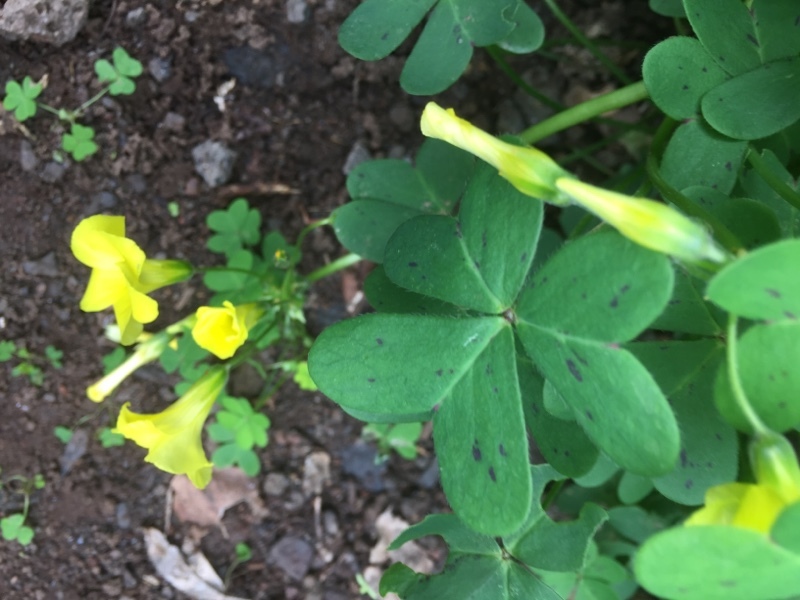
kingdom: Plantae
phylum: Tracheophyta
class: Magnoliopsida
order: Oxalidales
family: Oxalidaceae
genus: Oxalis
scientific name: Oxalis pes-caprae
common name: Bermuda-buttercup
